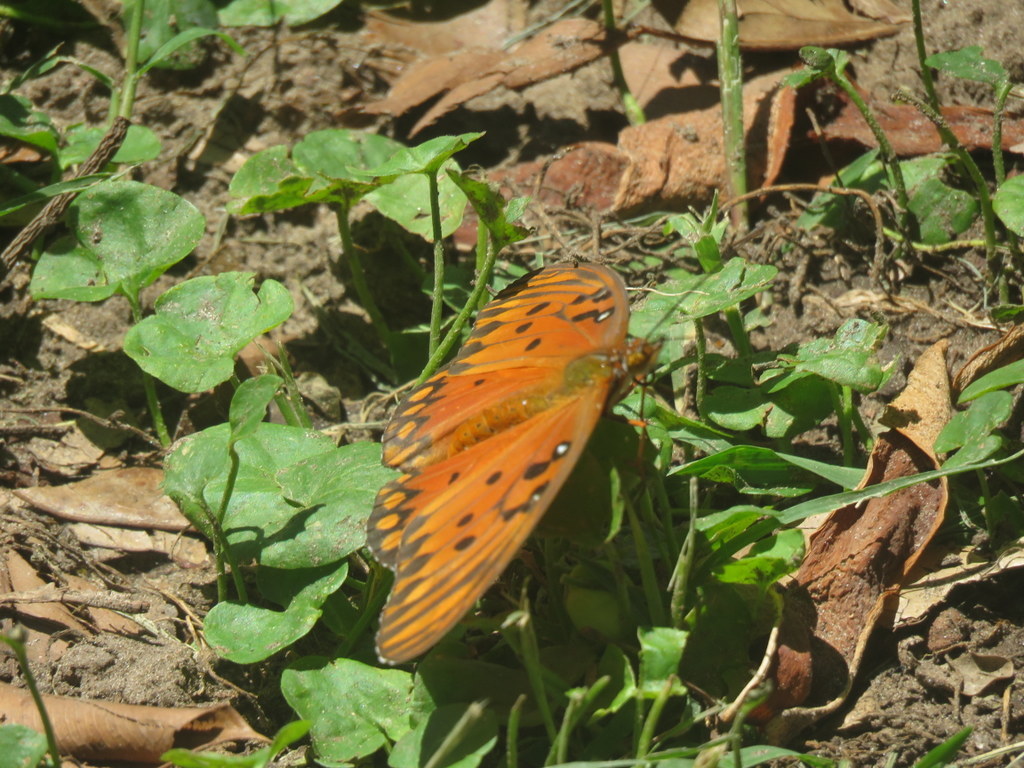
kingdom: Animalia
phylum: Arthropoda
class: Insecta
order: Lepidoptera
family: Nymphalidae
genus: Dione
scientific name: Dione vanillae
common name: Gulf fritillary
